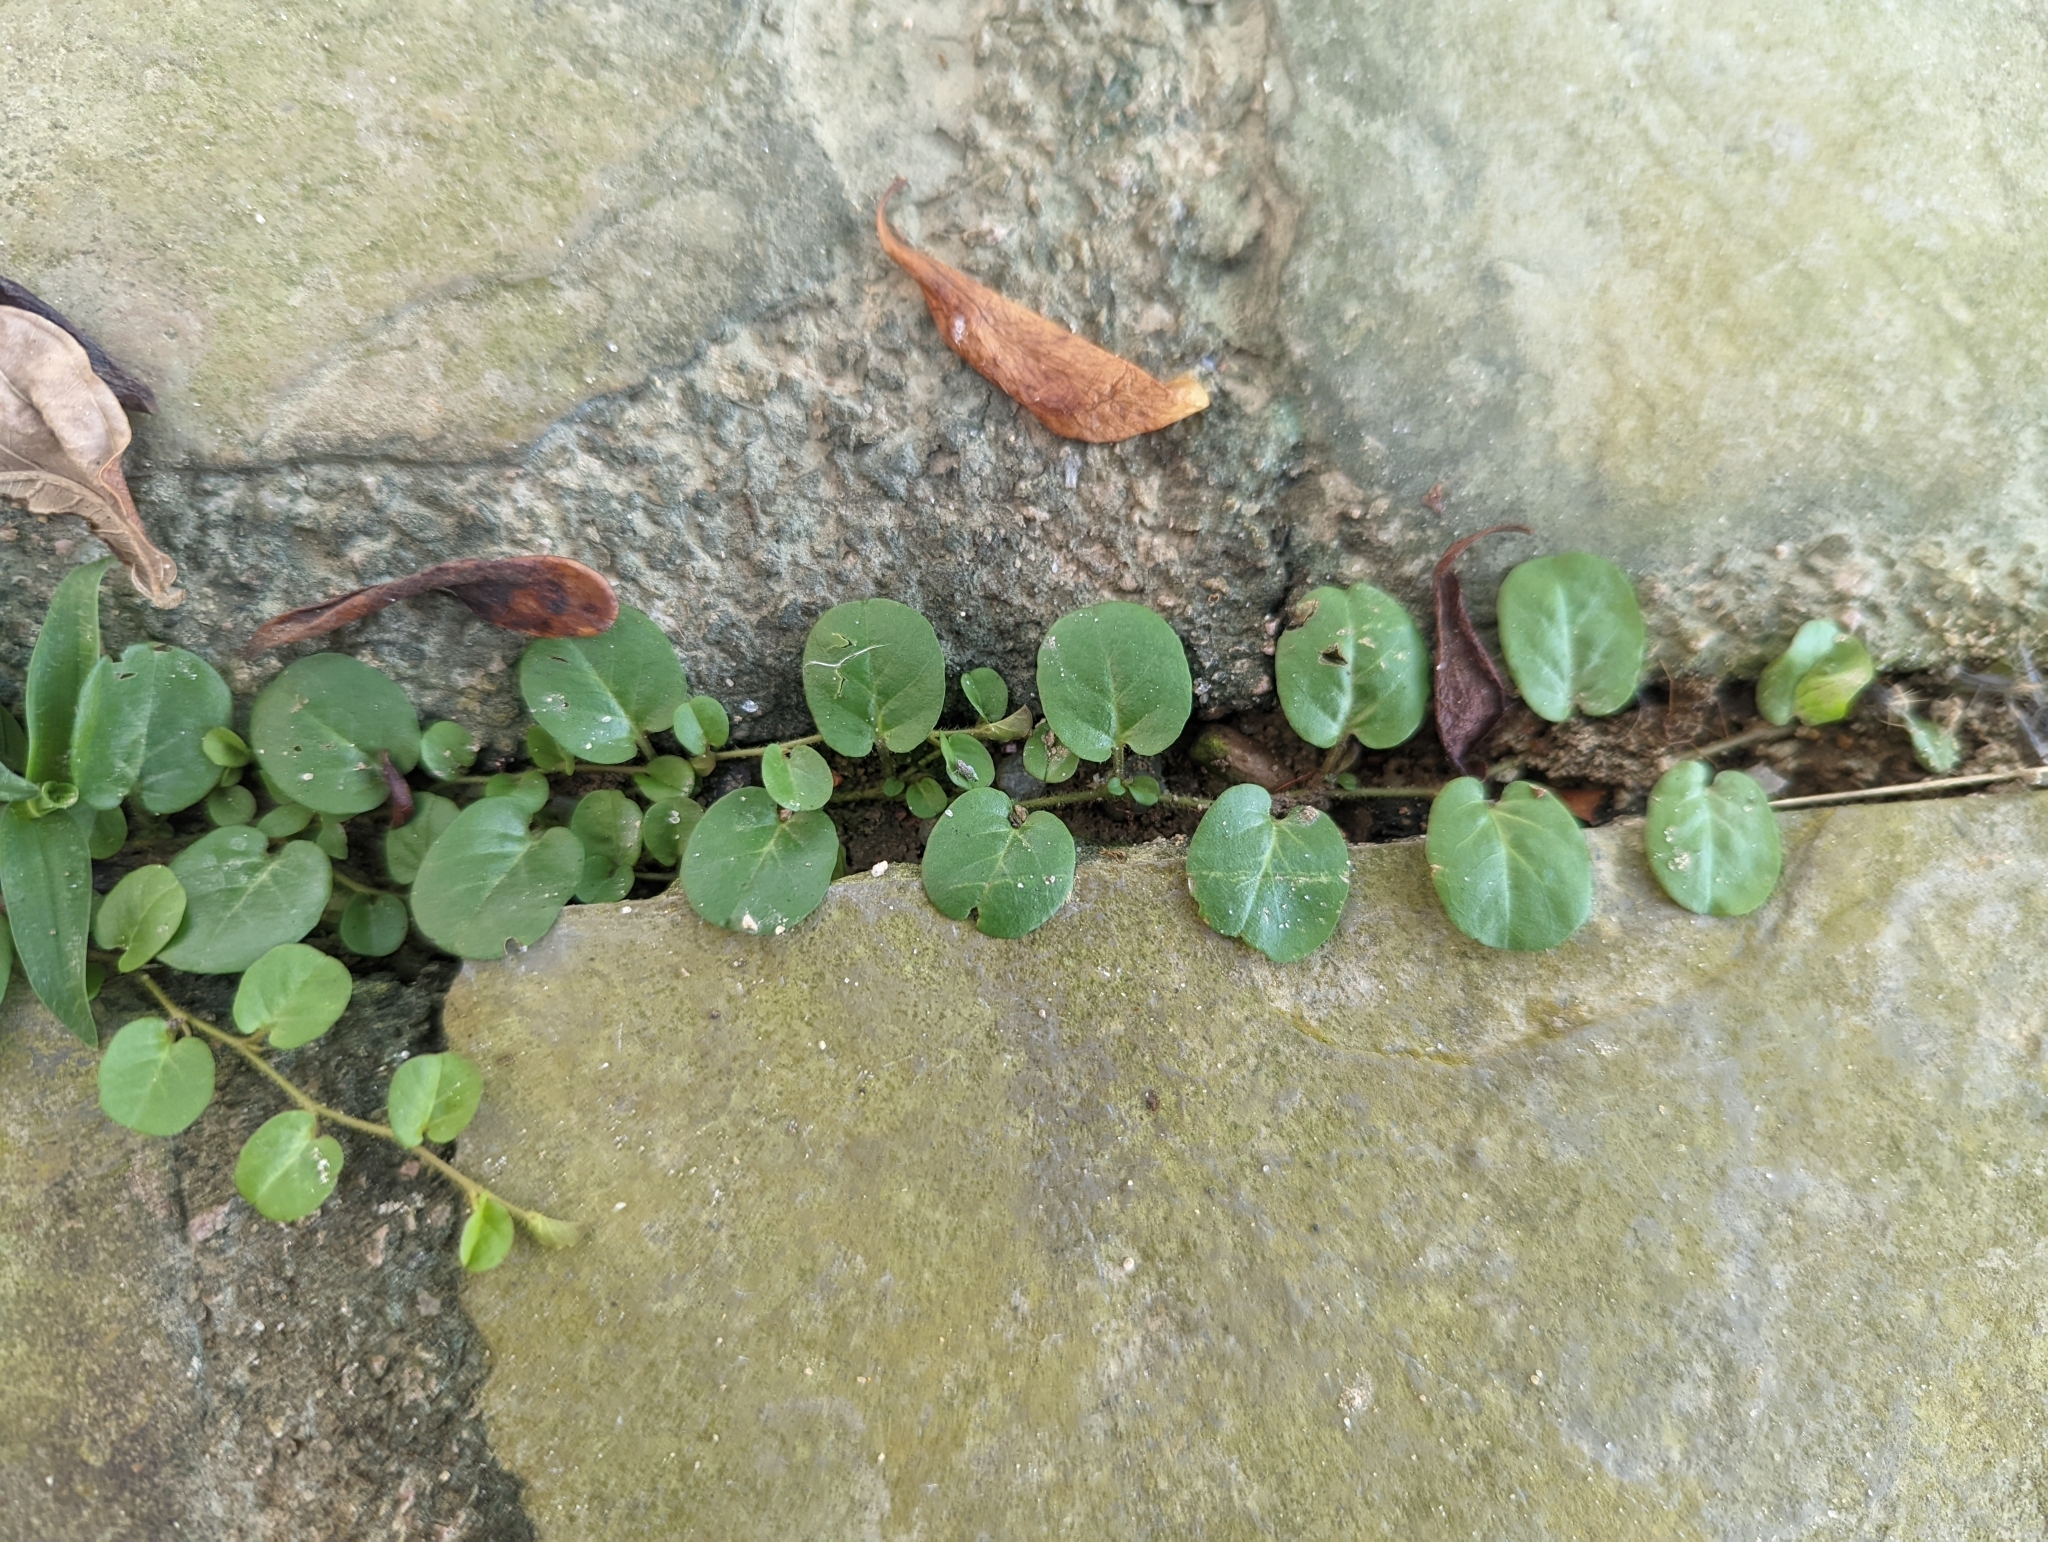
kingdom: Plantae
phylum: Tracheophyta
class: Magnoliopsida
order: Solanales
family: Convolvulaceae
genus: Evolvulus
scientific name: Evolvulus nummularius
